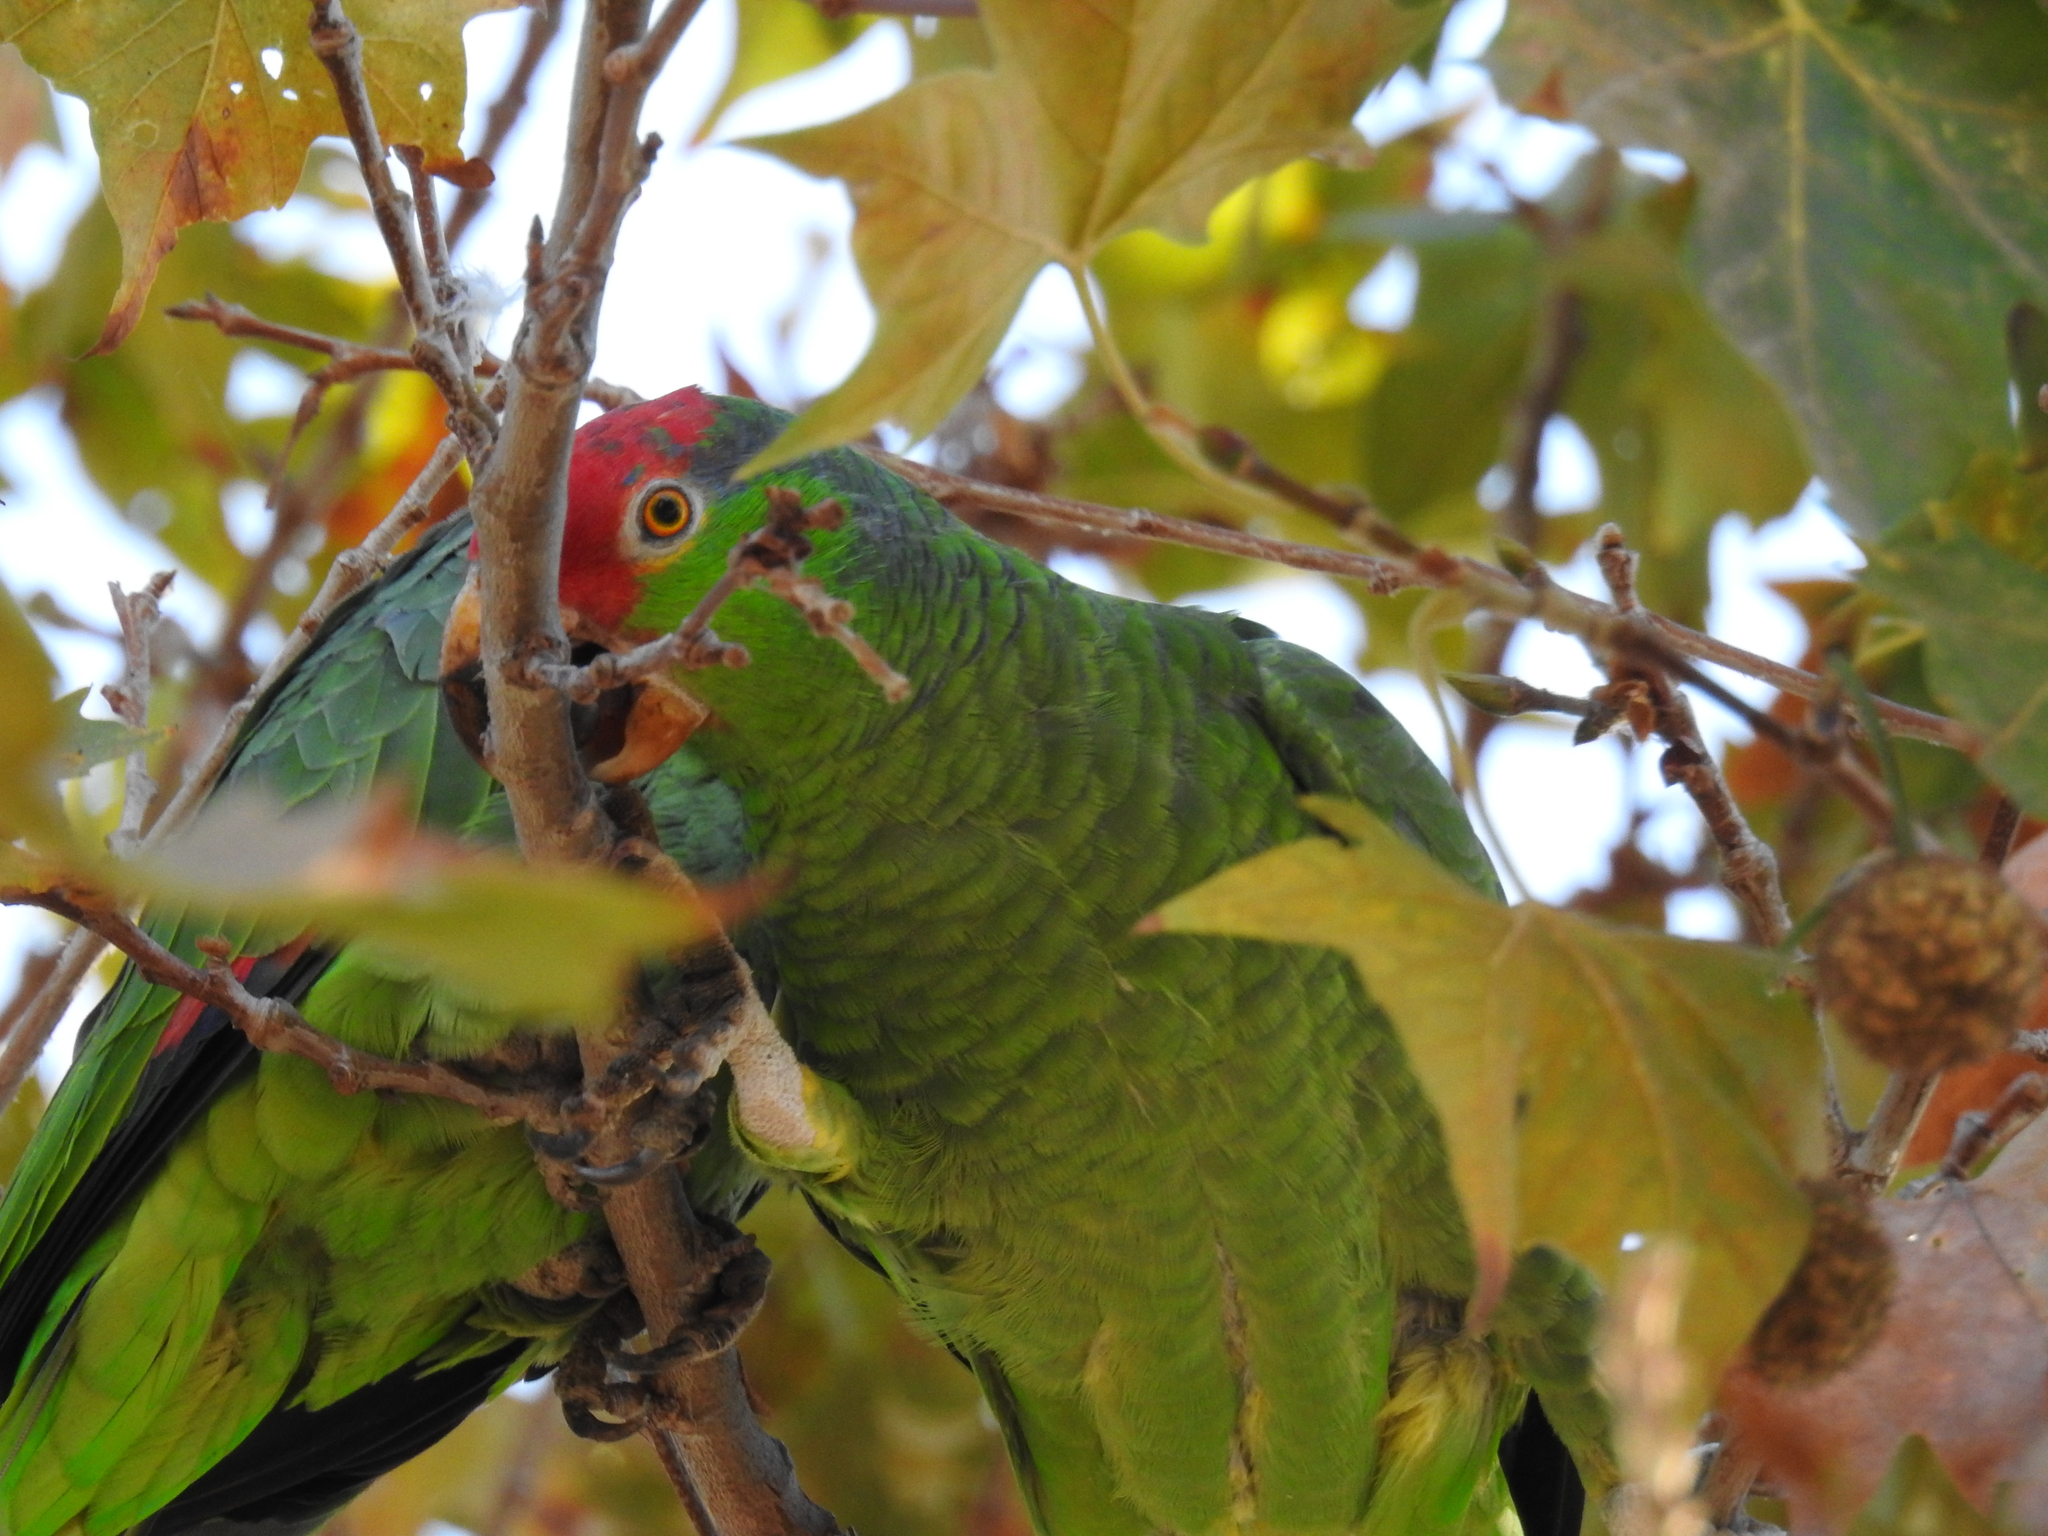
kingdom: Animalia
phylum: Chordata
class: Aves
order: Psittaciformes
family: Psittacidae
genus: Amazona
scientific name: Amazona viridigenalis
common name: Red-crowned amazon
